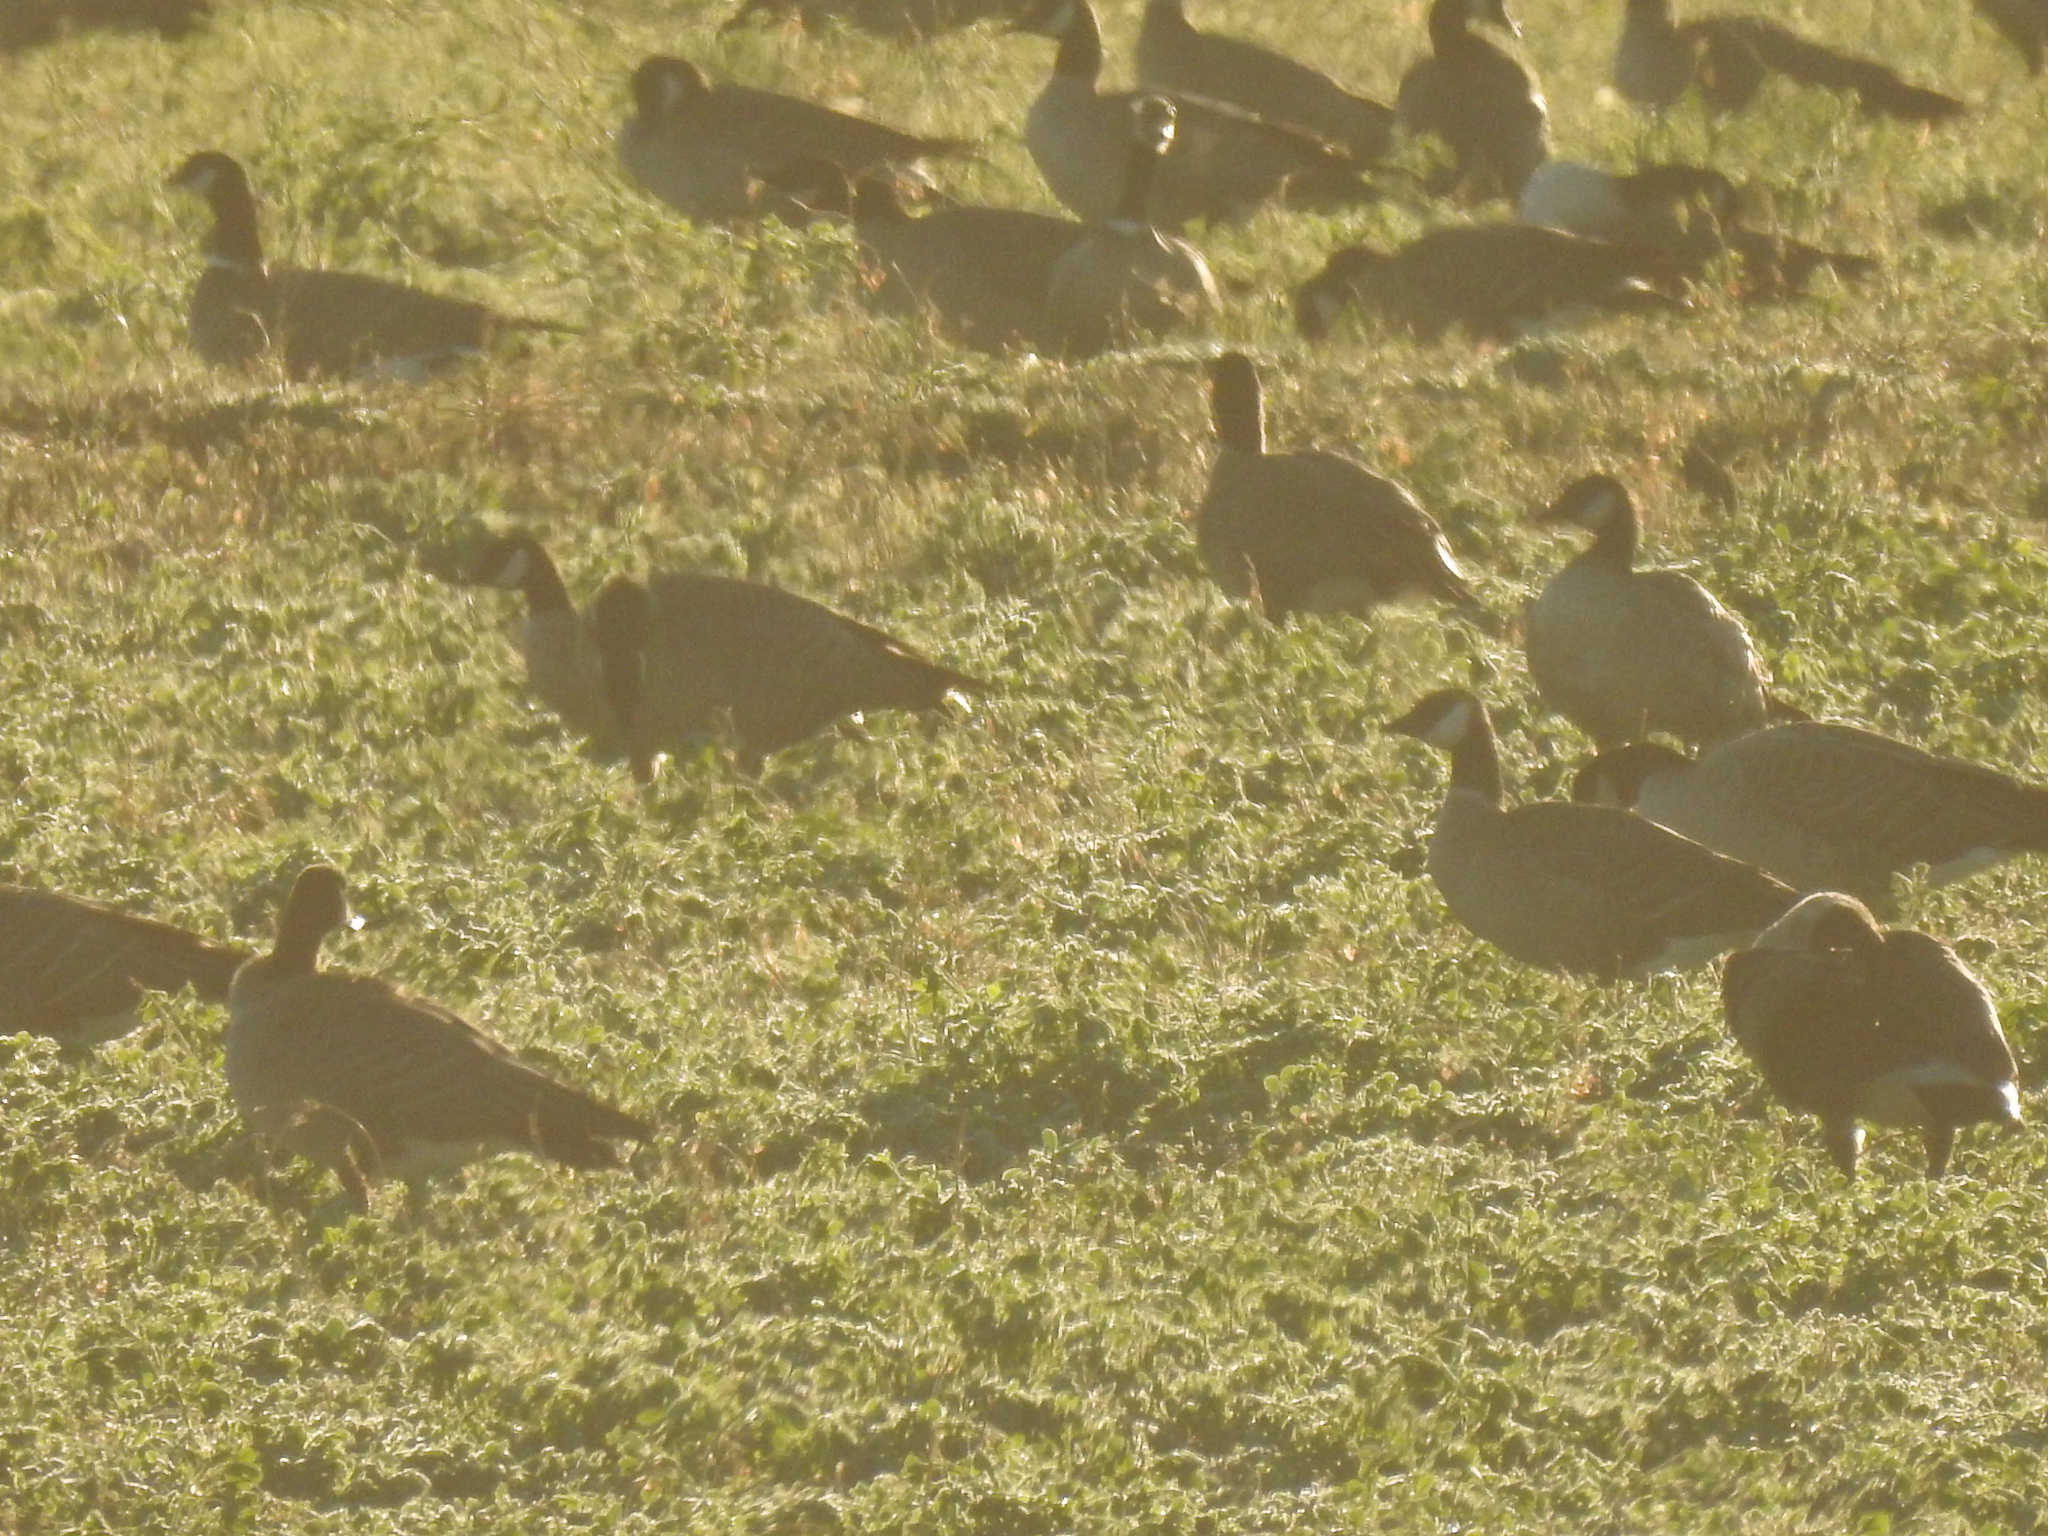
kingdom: Animalia
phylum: Chordata
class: Aves
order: Anseriformes
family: Anatidae
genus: Branta
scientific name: Branta hutchinsii
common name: Cackling goose
